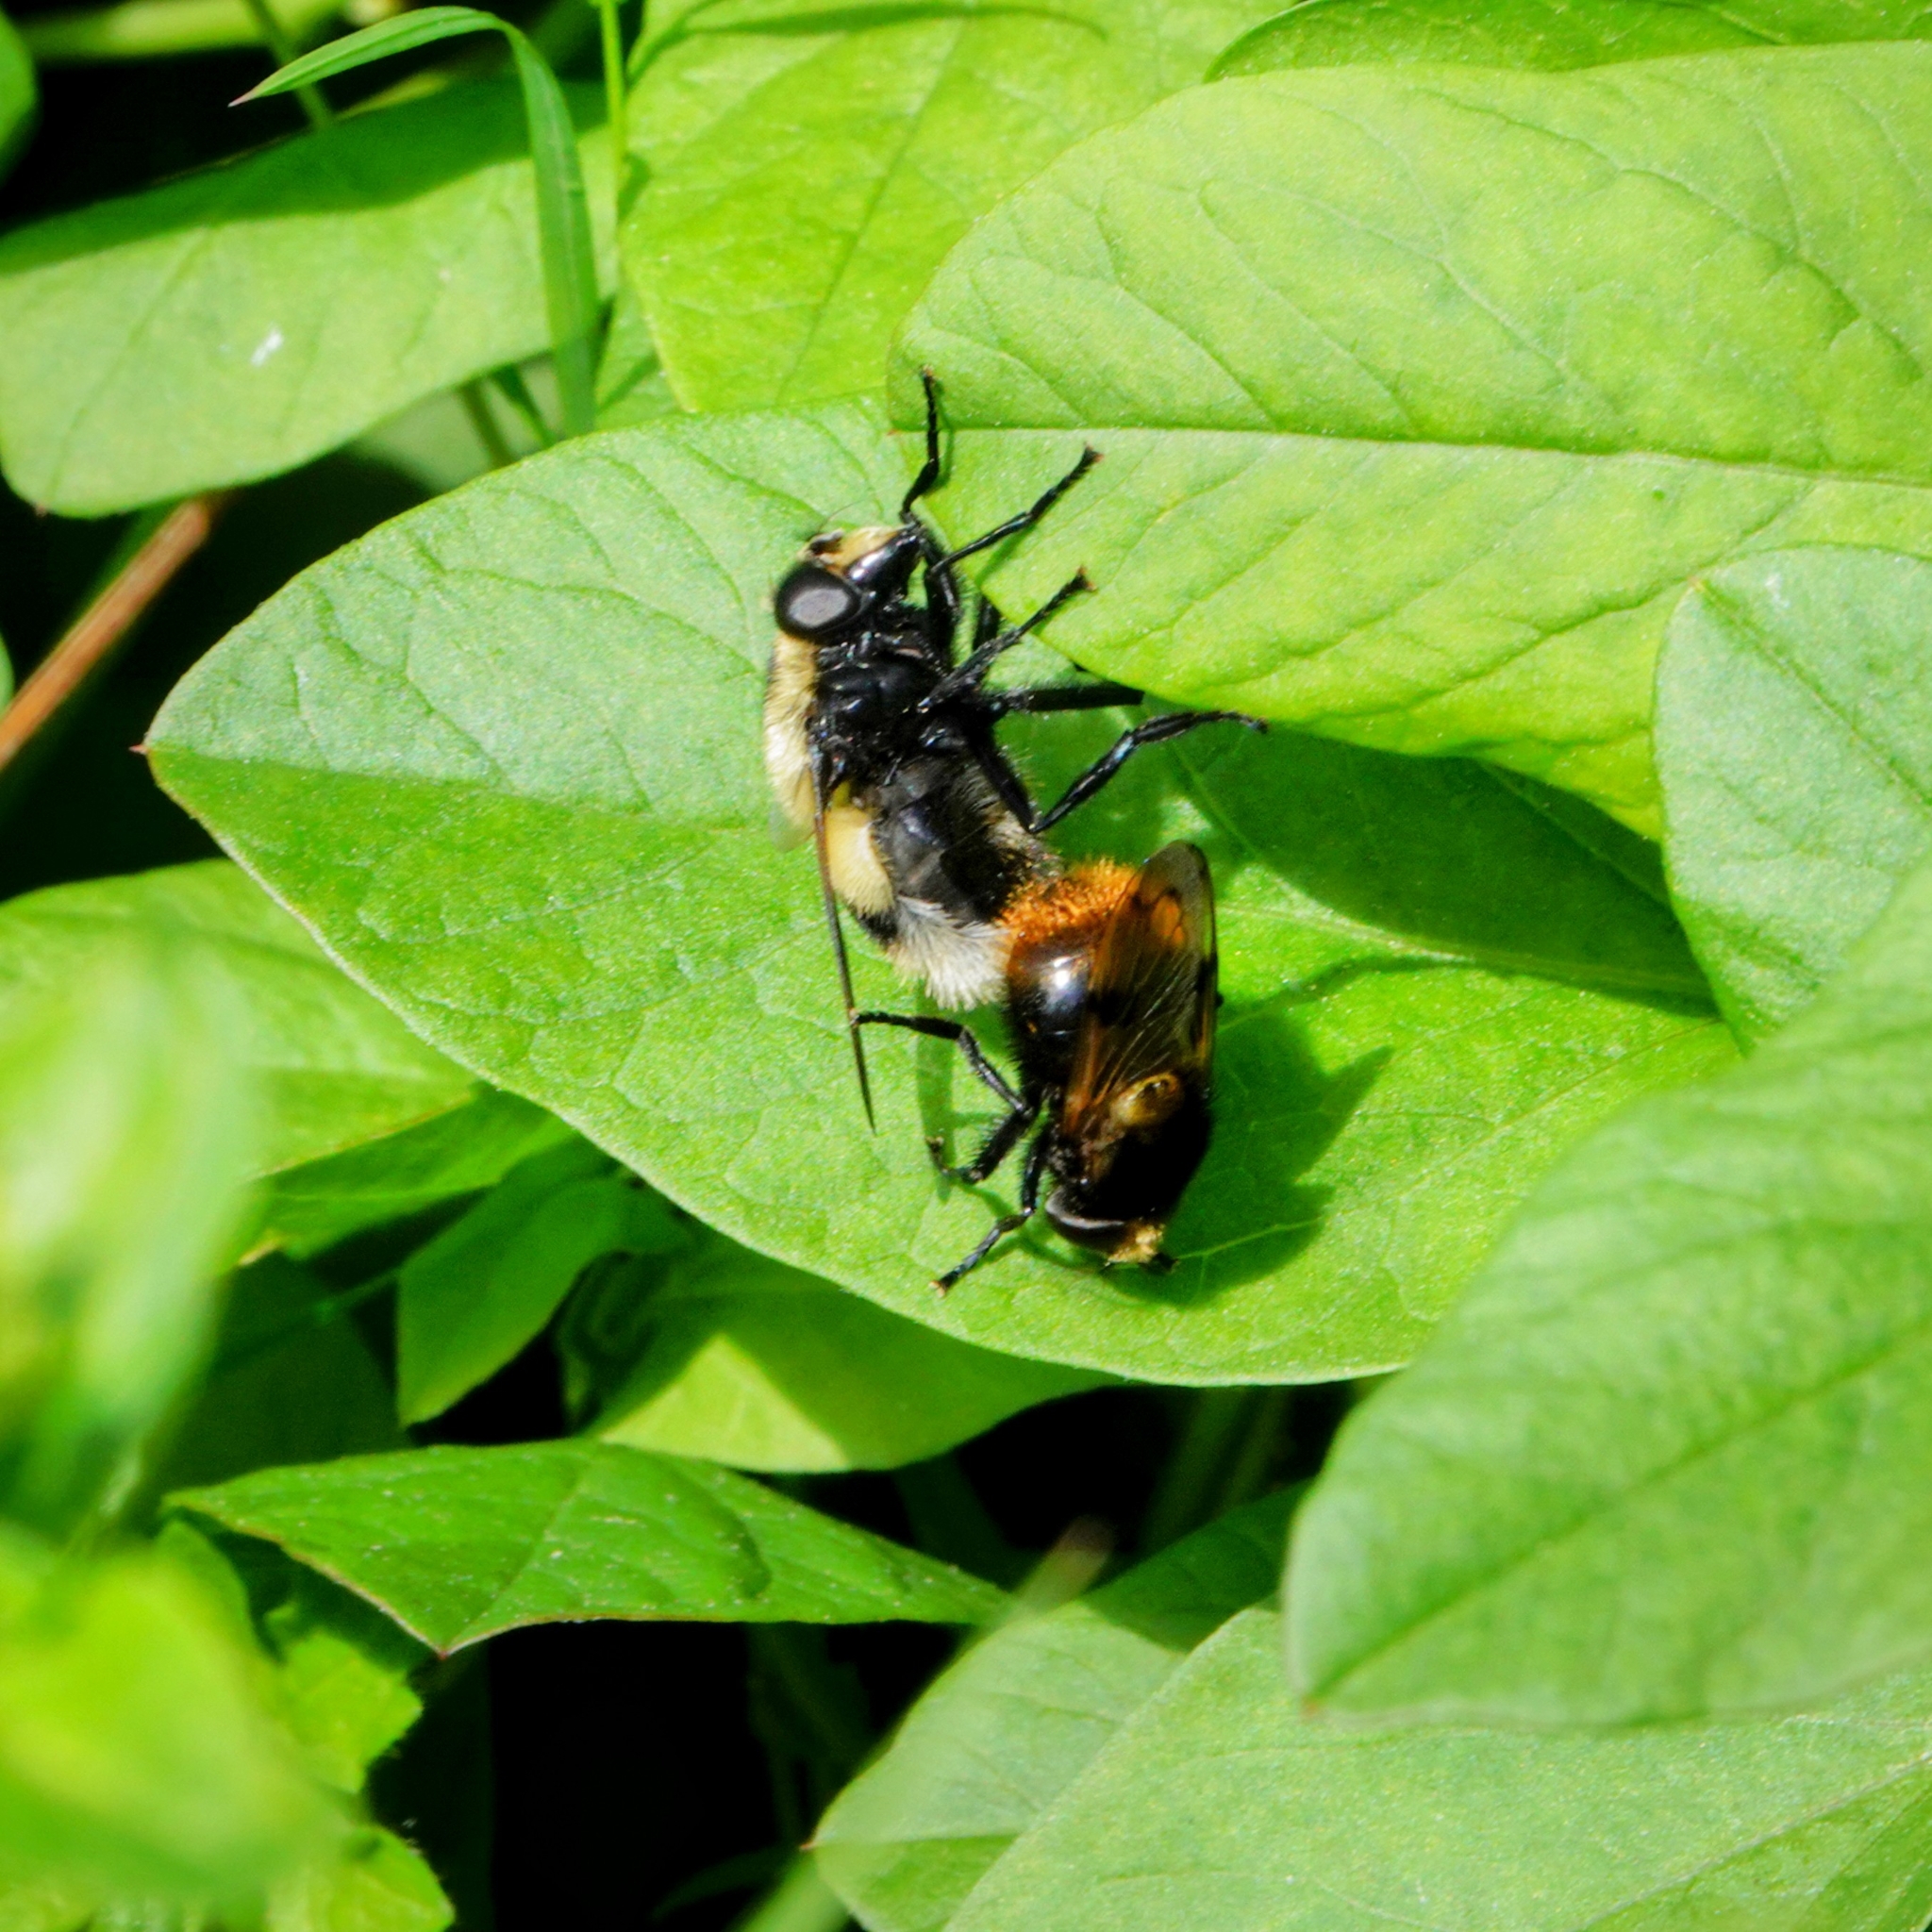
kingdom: Animalia
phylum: Arthropoda
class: Insecta
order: Diptera
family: Syrphidae
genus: Volucella
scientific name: Volucella bombylans
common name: Bumble bee hover fly
